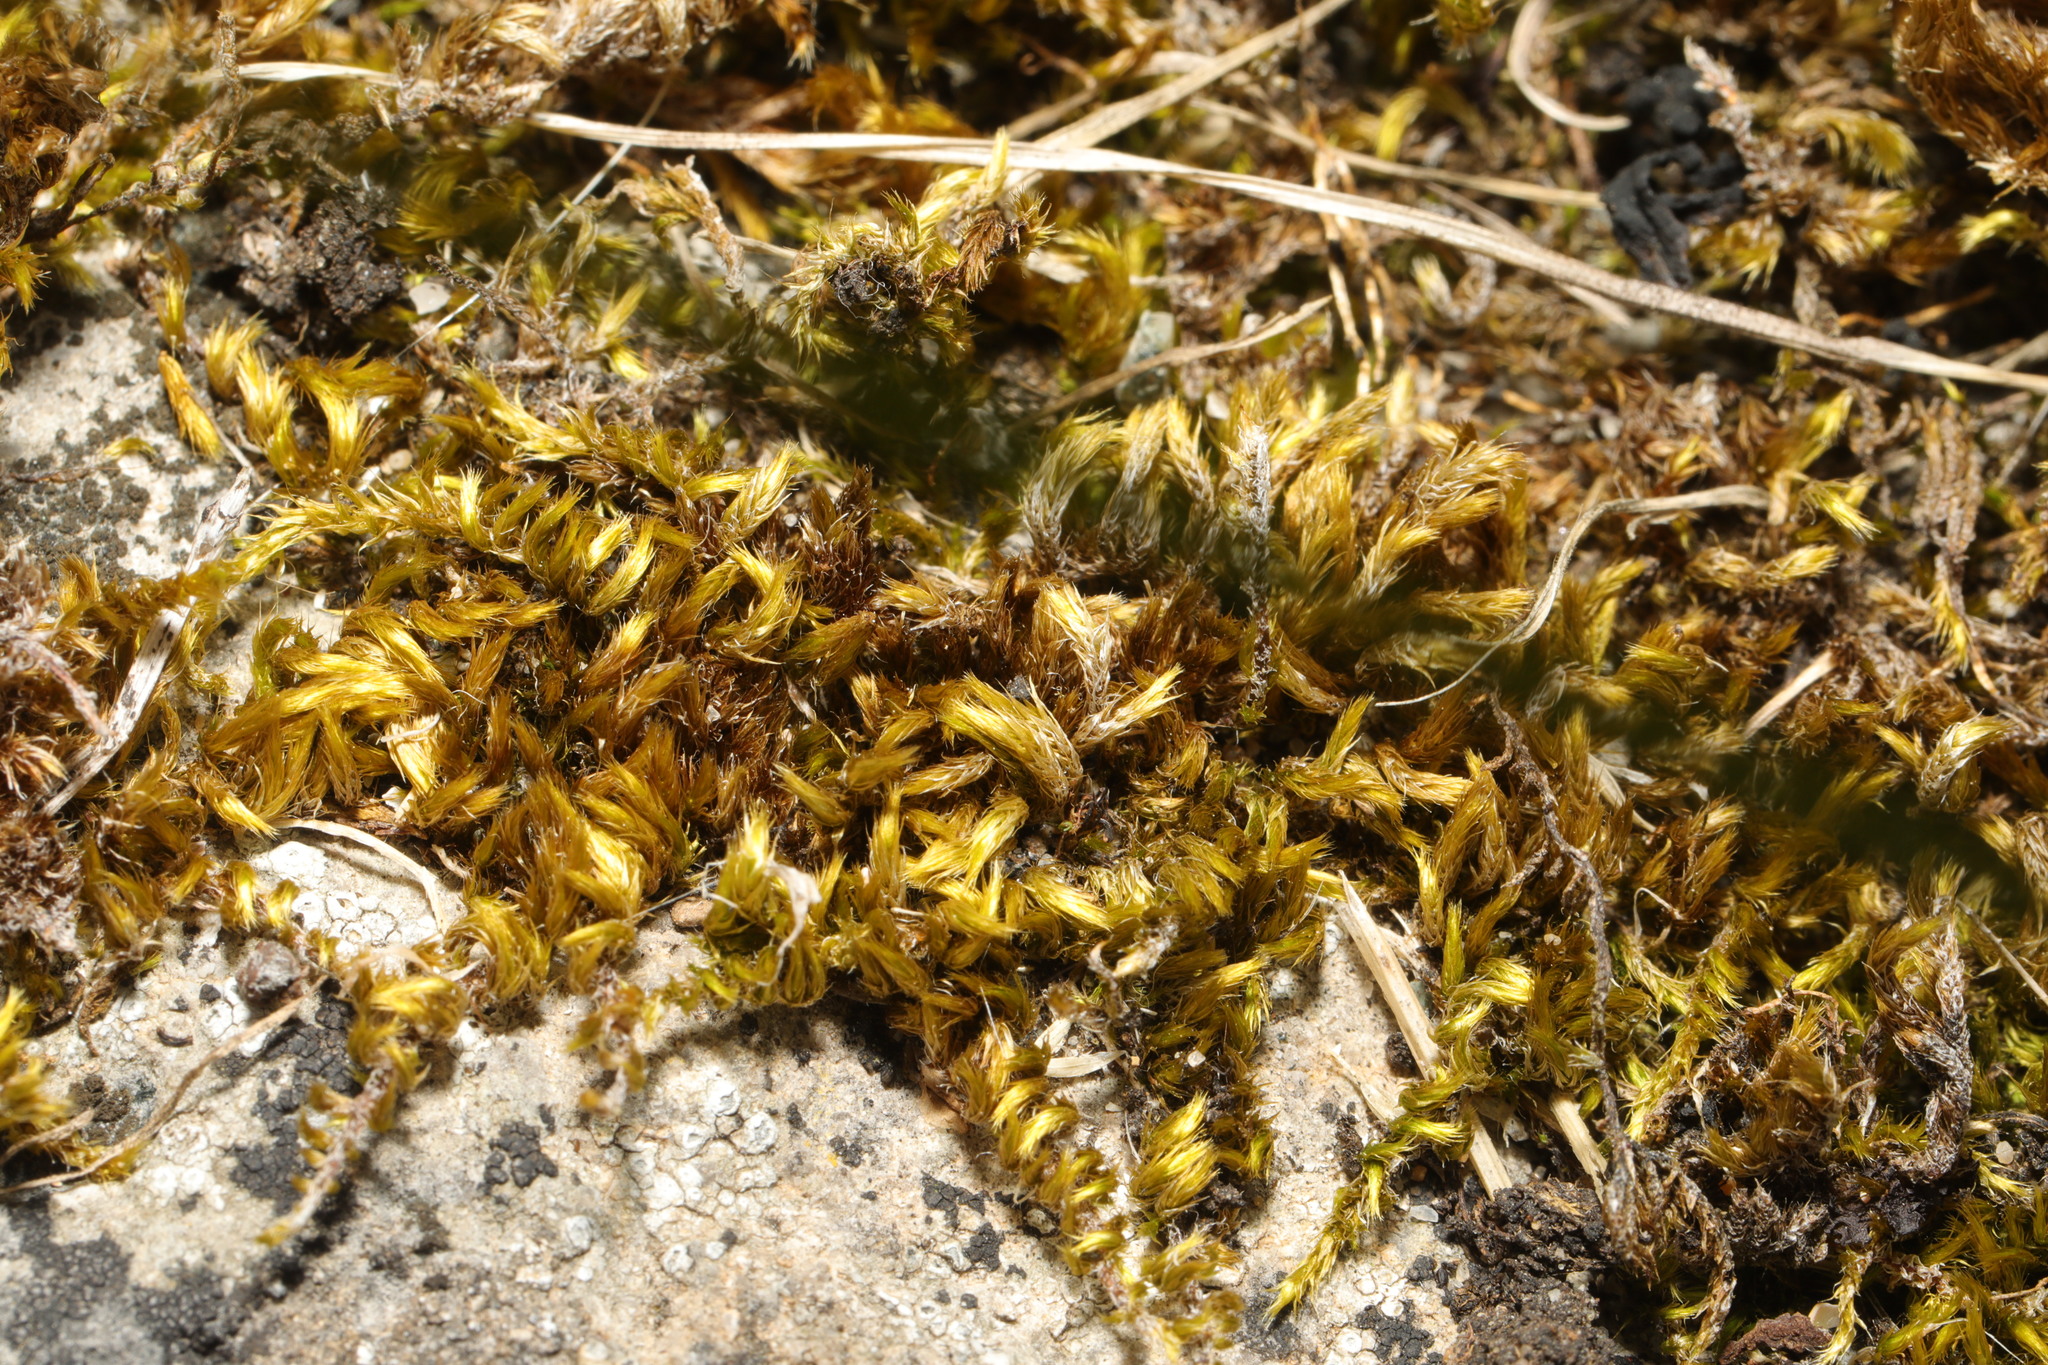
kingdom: Plantae
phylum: Bryophyta
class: Bryopsida
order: Hypnales
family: Brachytheciaceae
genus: Homalothecium
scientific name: Homalothecium sericeum
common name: Silky wall feather-moss
